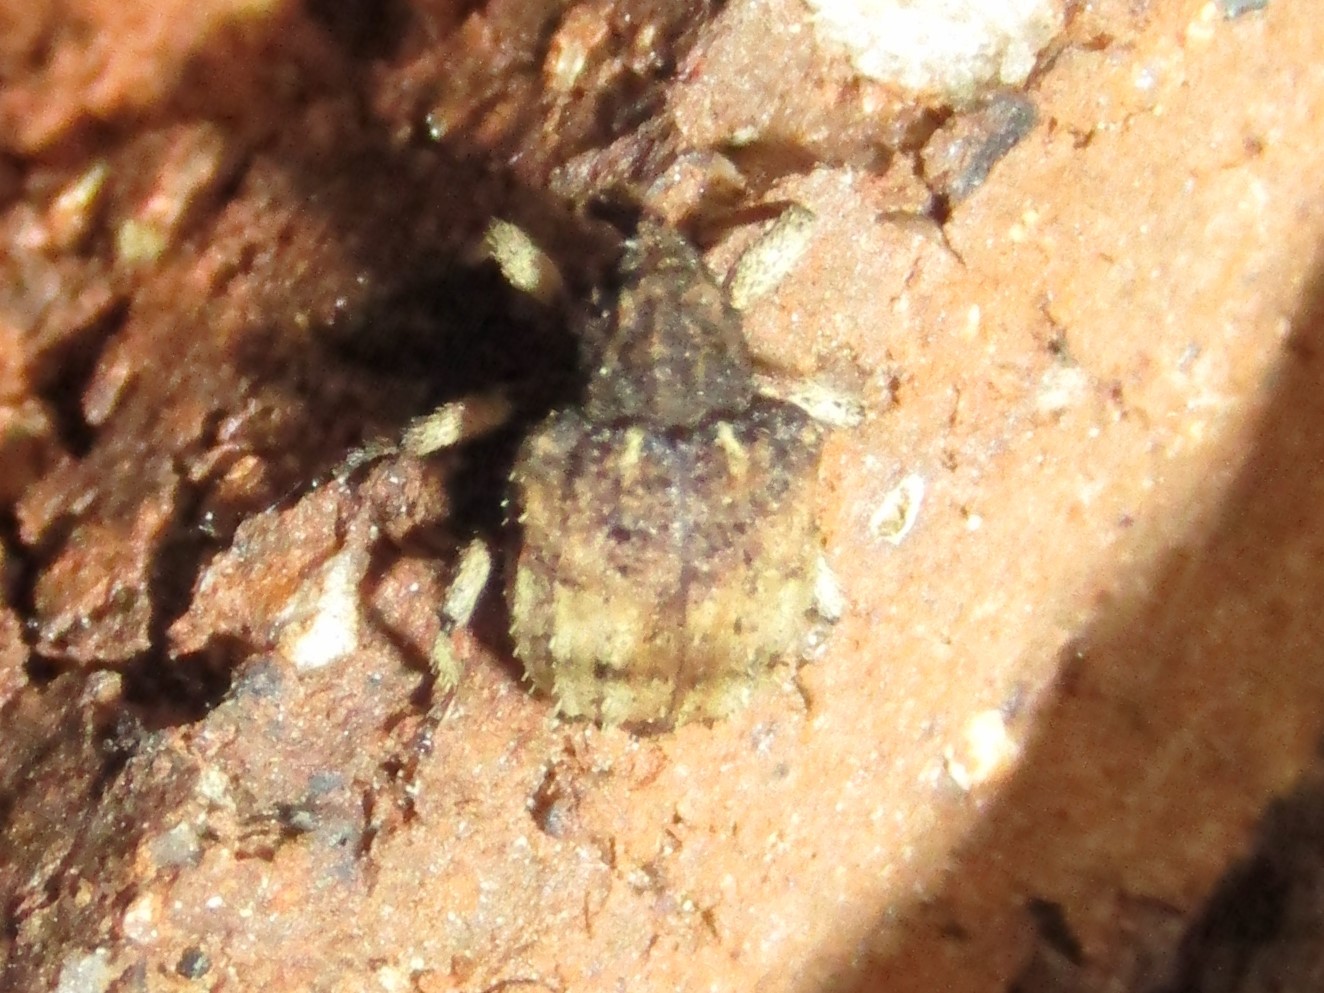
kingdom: Animalia
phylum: Arthropoda
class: Insecta
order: Coleoptera
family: Curculionidae
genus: Phyrdenus
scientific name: Phyrdenus divergens
